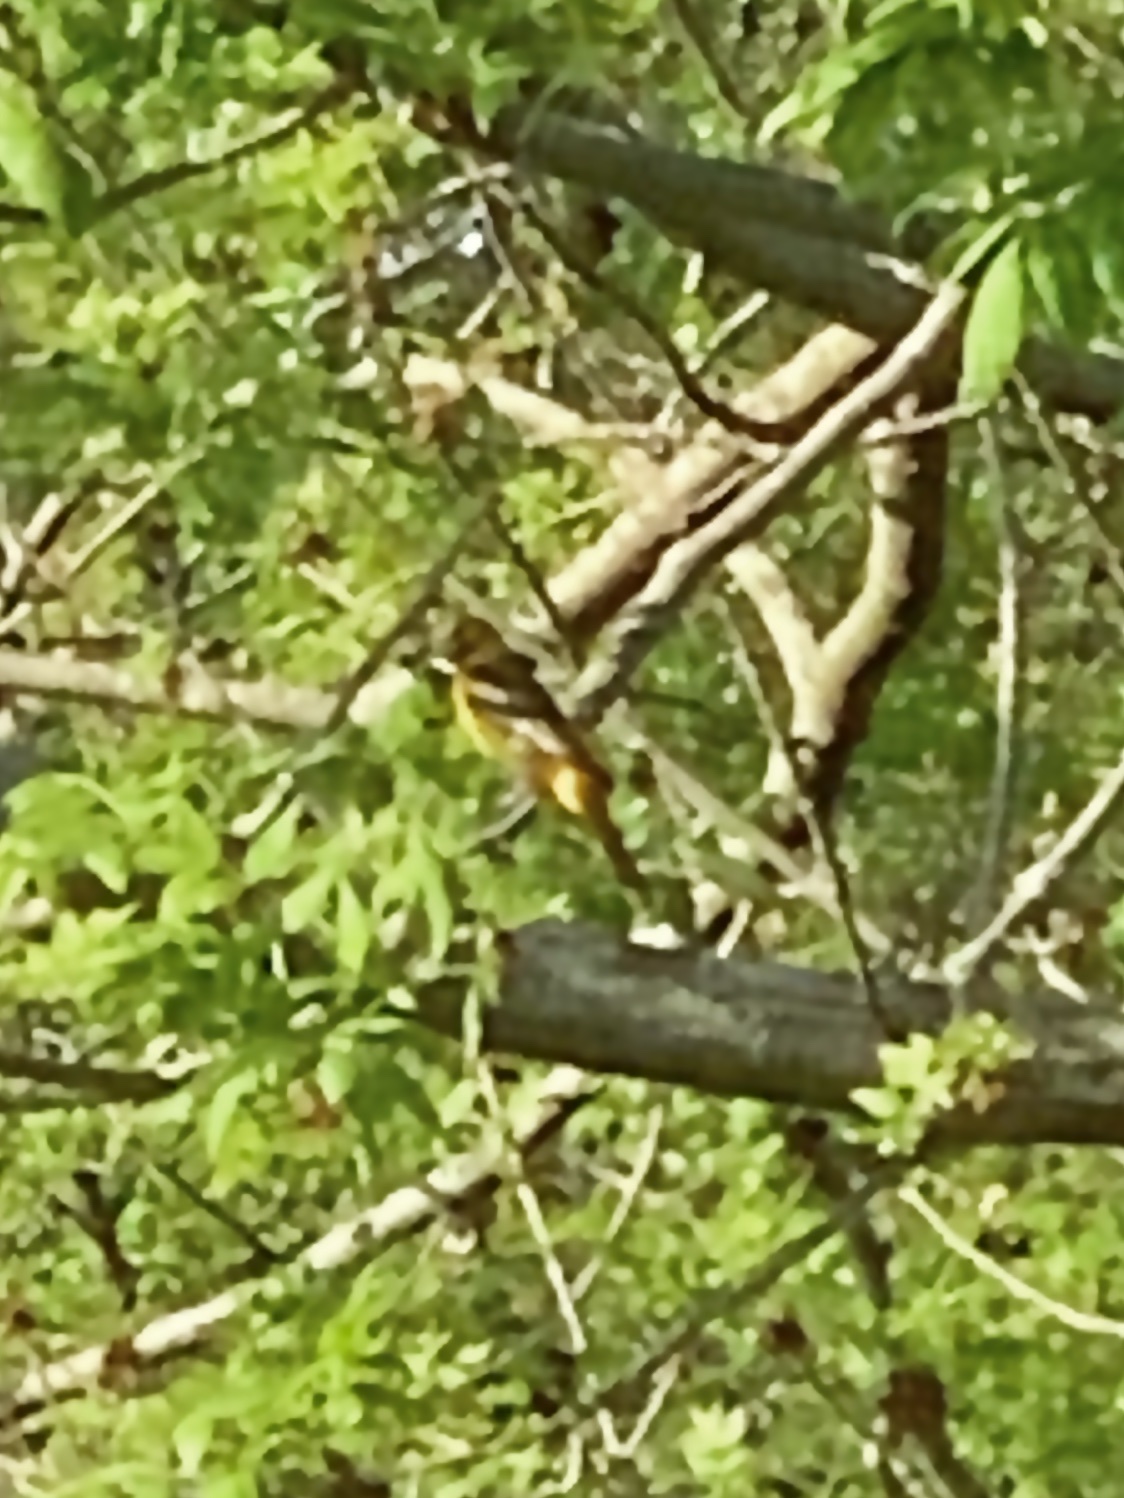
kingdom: Animalia
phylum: Chordata
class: Aves
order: Passeriformes
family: Icteridae
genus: Icterus
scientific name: Icterus galbula
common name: Baltimore oriole
